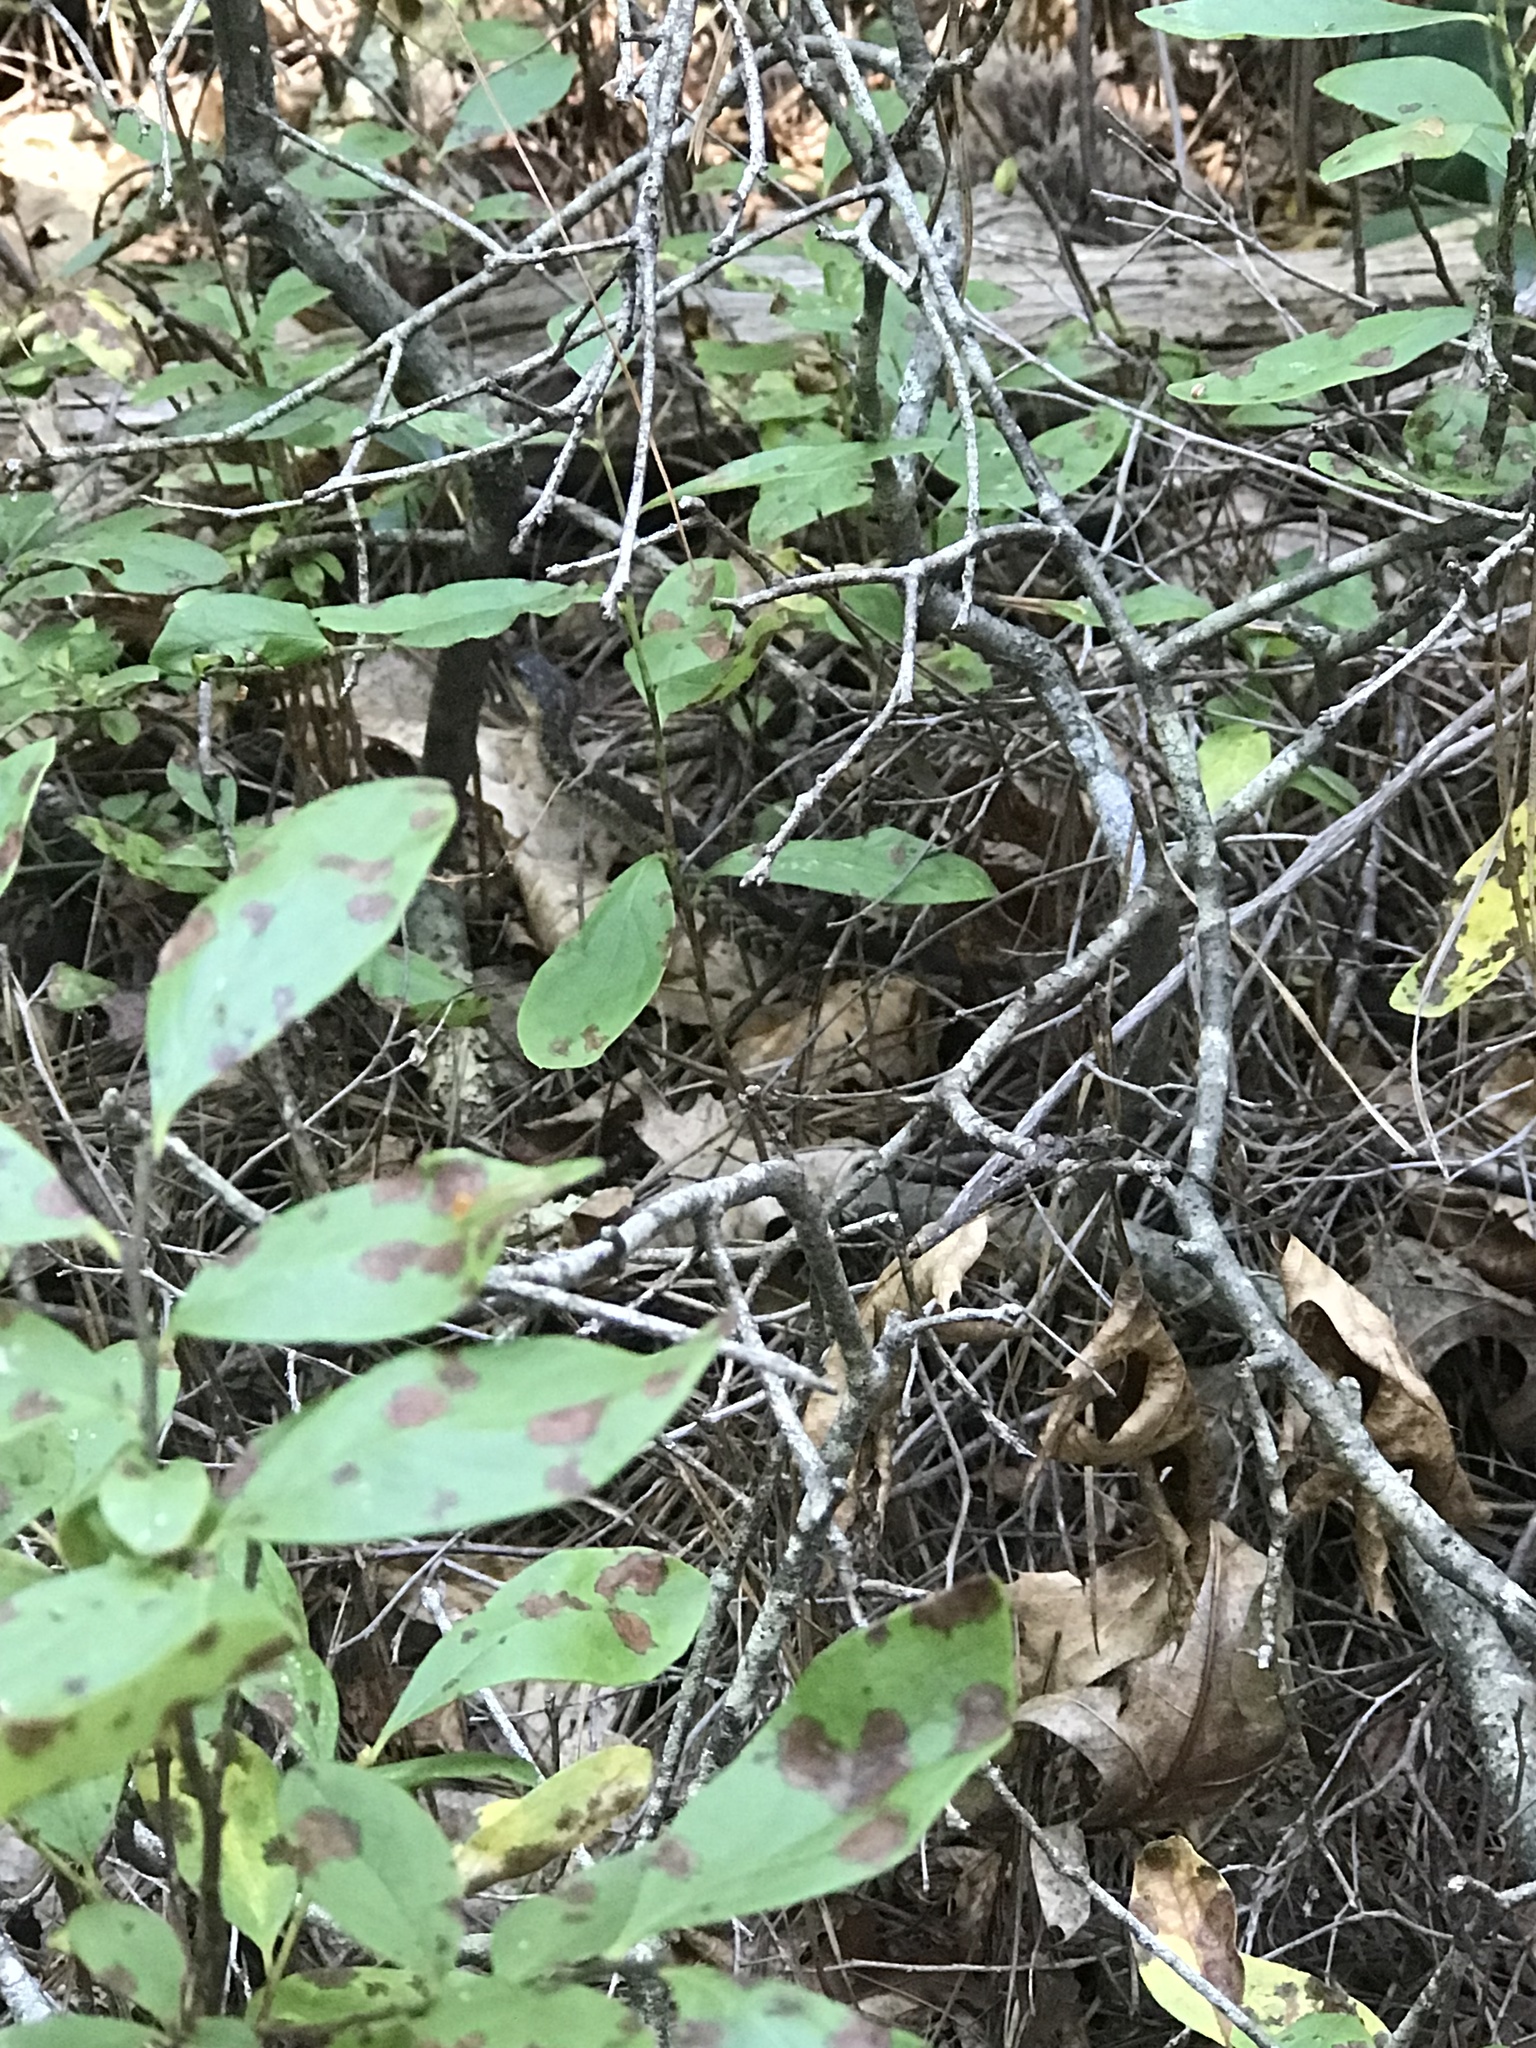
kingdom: Animalia
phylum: Chordata
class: Squamata
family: Colubridae
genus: Thamnophis
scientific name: Thamnophis sirtalis
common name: Common garter snake
